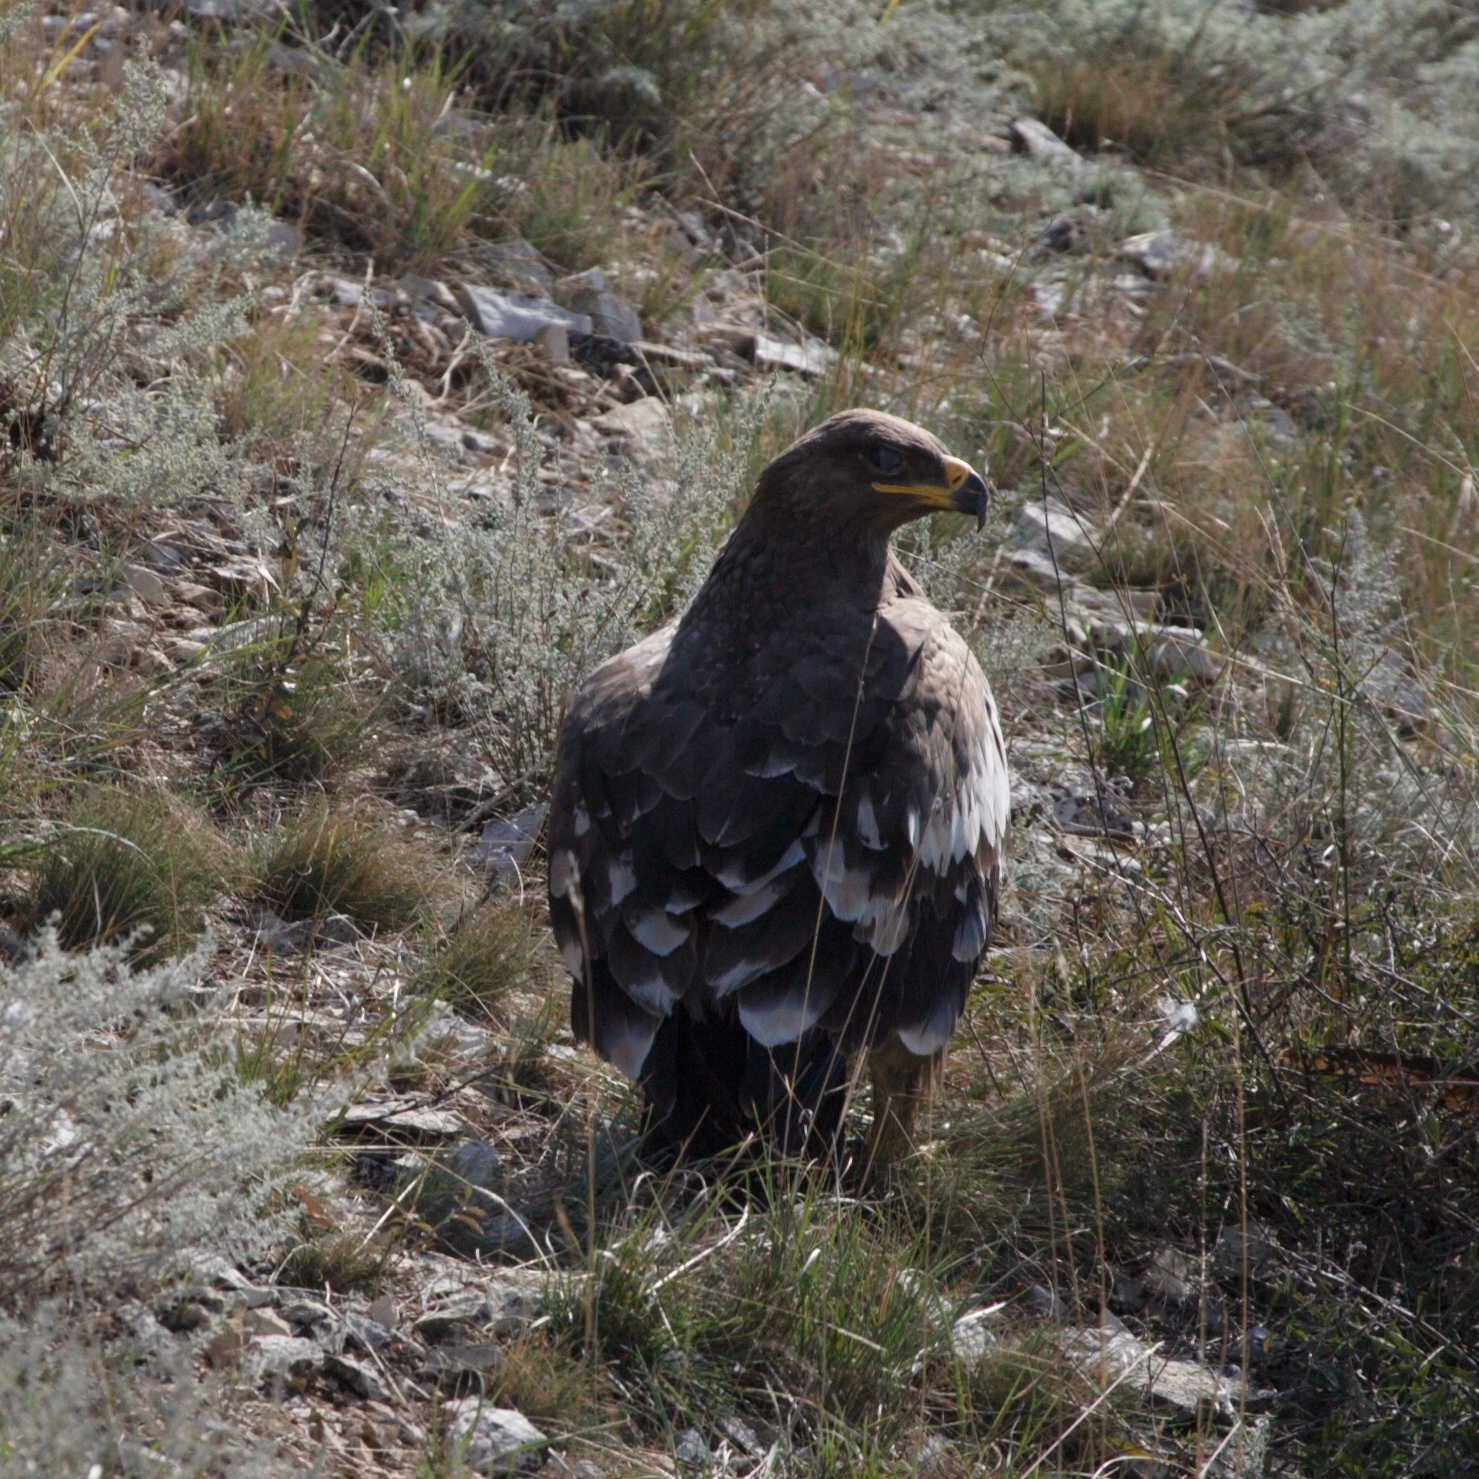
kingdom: Animalia
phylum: Chordata
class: Aves
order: Accipitriformes
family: Accipitridae
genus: Aquila
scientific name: Aquila nipalensis
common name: Steppe eagle
